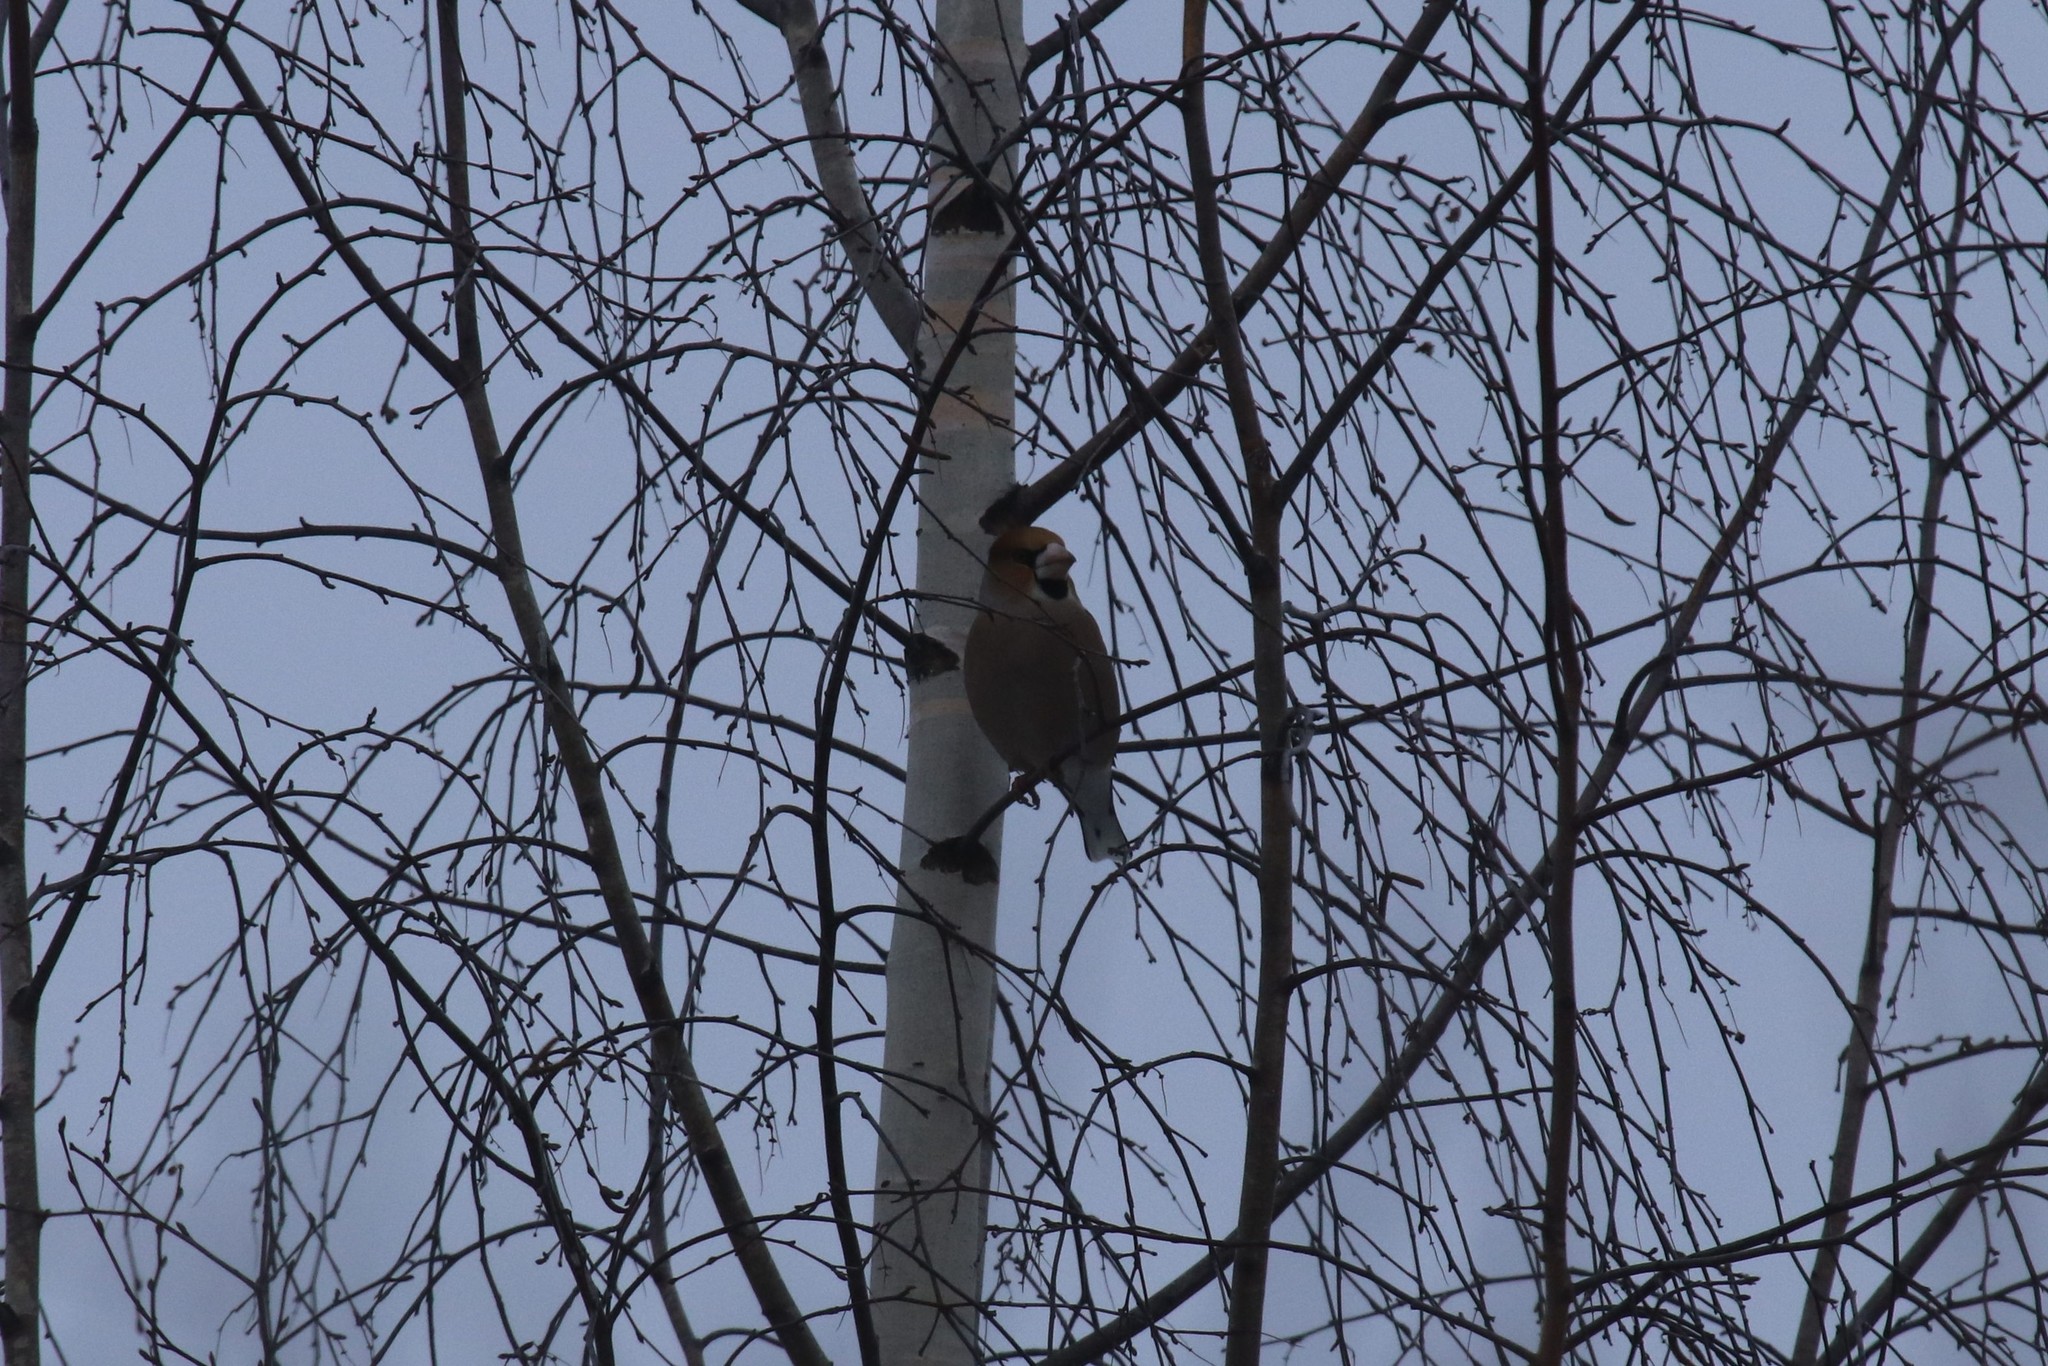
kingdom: Animalia
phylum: Chordata
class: Aves
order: Passeriformes
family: Fringillidae
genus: Coccothraustes
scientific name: Coccothraustes coccothraustes
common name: Hawfinch
